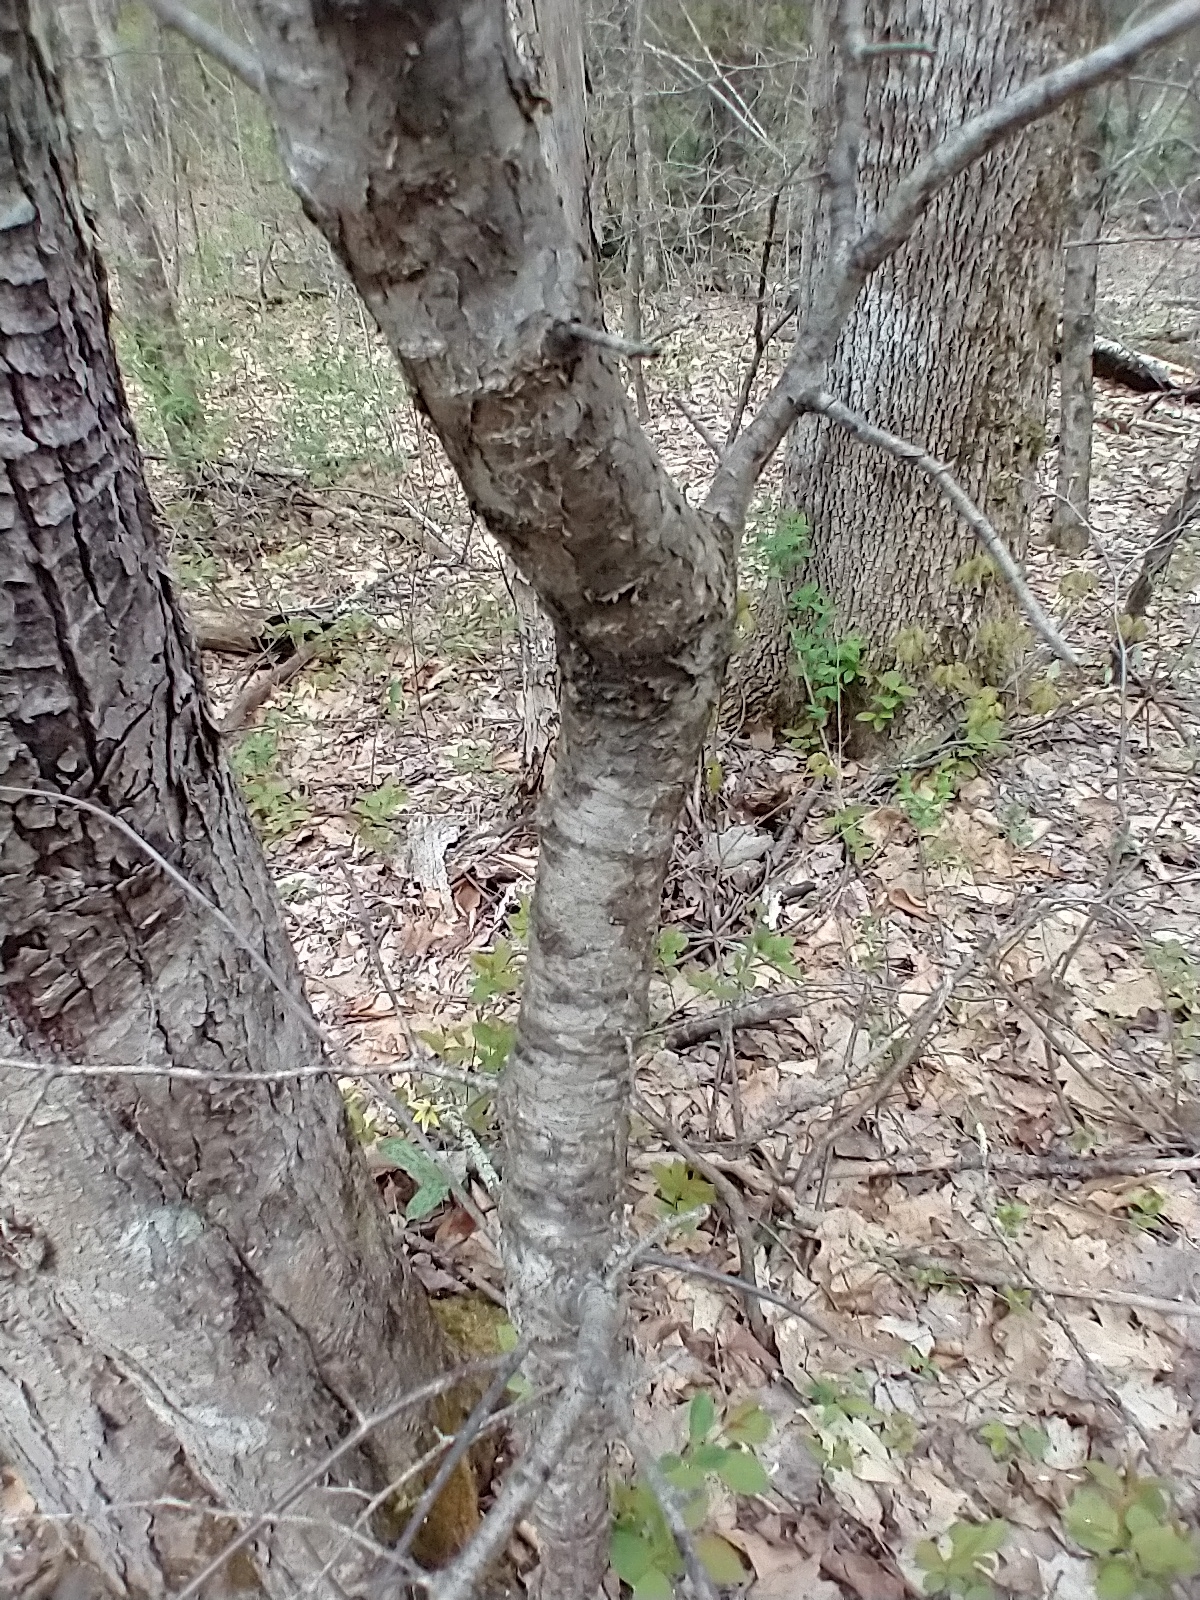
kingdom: Plantae
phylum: Tracheophyta
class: Magnoliopsida
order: Rosales
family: Rosaceae
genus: Prunus
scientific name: Prunus nigra
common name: Black plum
